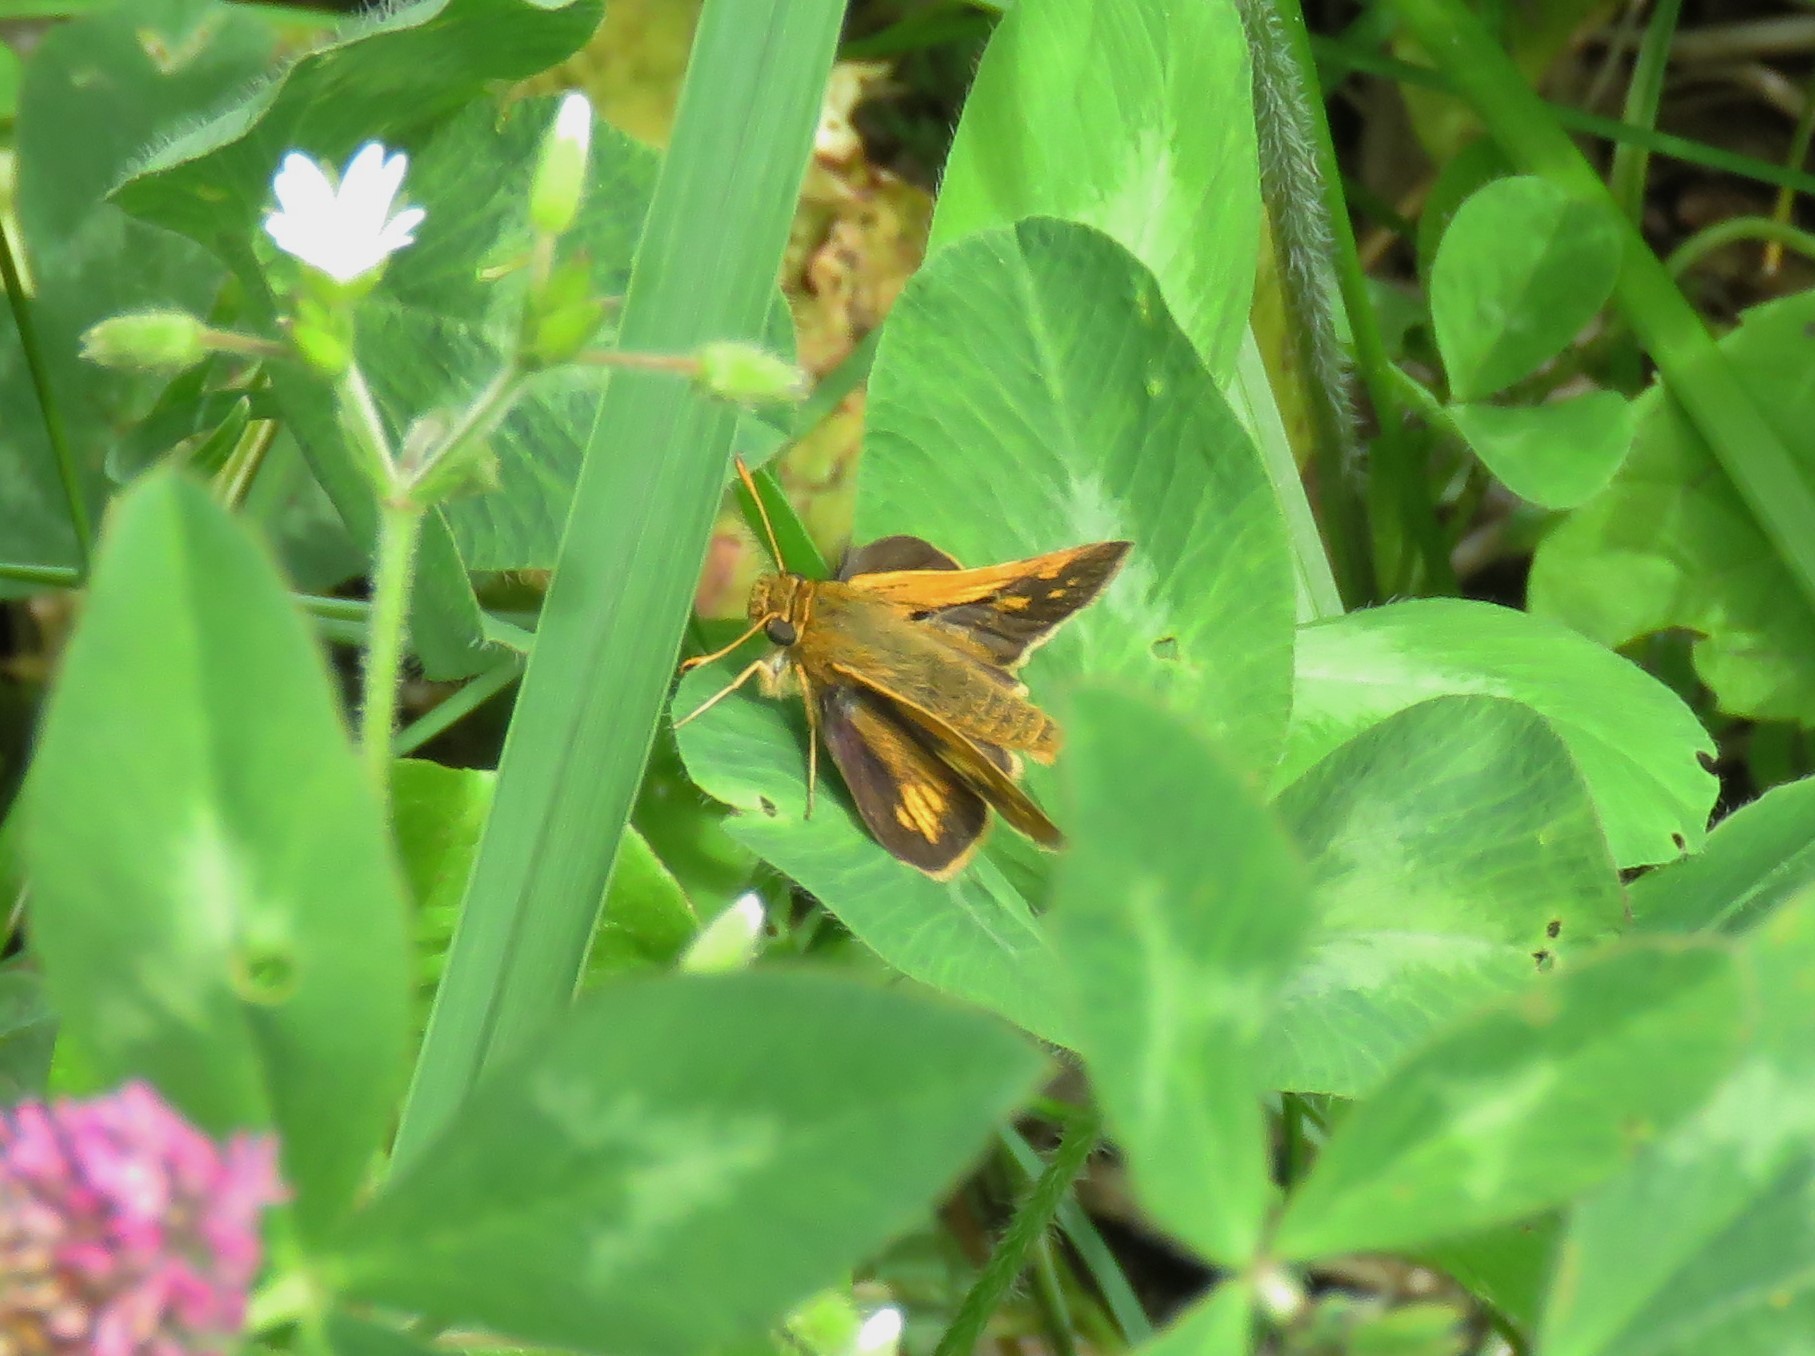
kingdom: Animalia
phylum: Arthropoda
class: Insecta
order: Lepidoptera
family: Hesperiidae
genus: Polites
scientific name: Polites coras
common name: Peck's skipper
